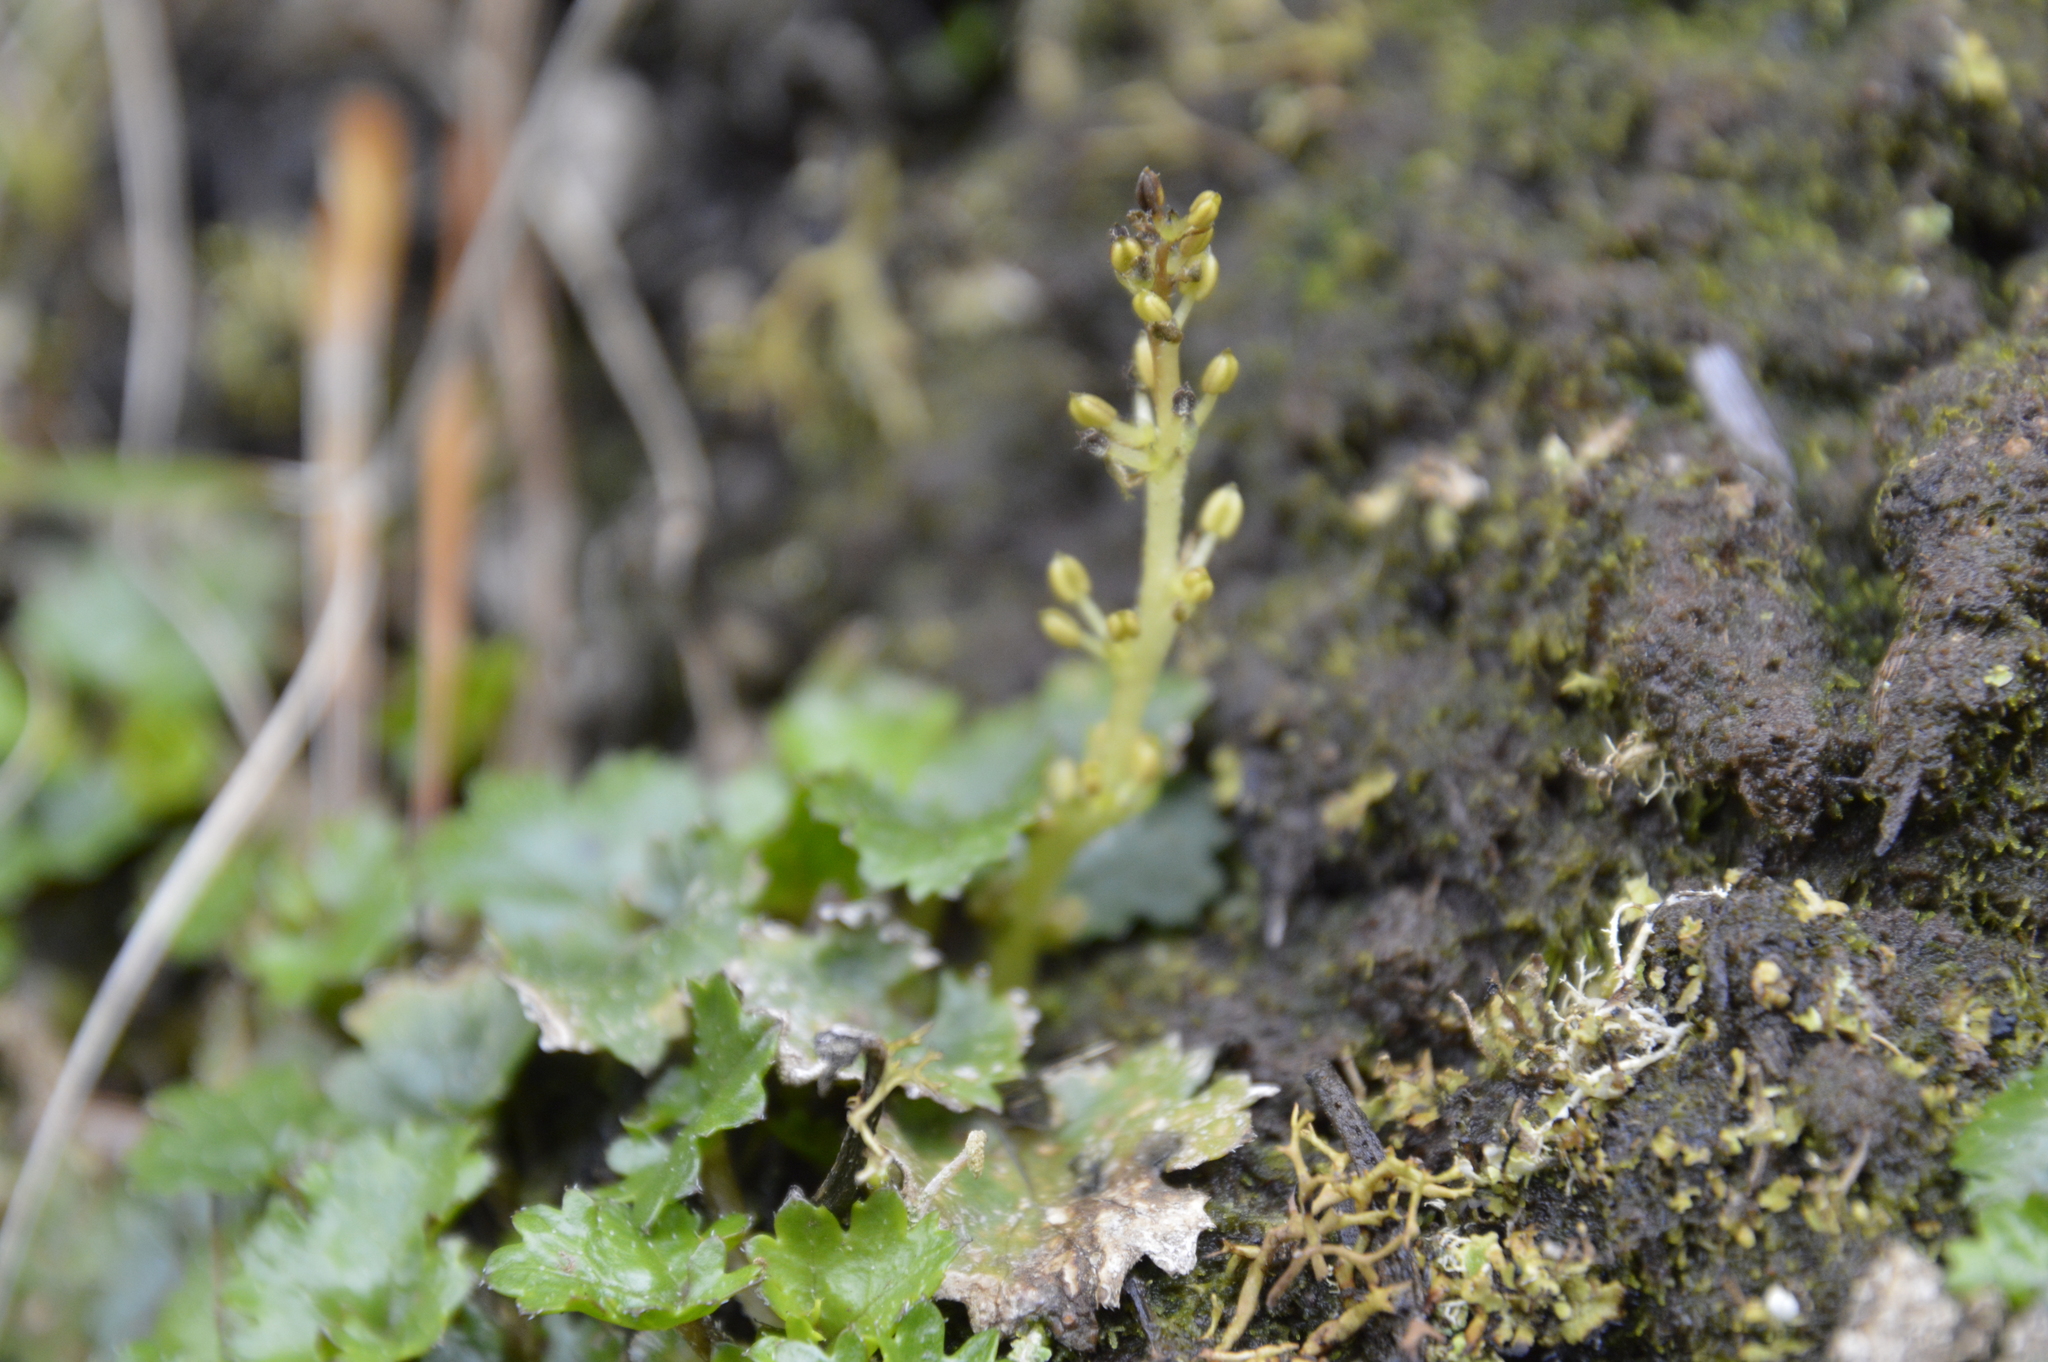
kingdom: Plantae
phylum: Tracheophyta
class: Magnoliopsida
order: Gunnerales
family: Gunneraceae
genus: Gunnera
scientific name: Gunnera monoica
